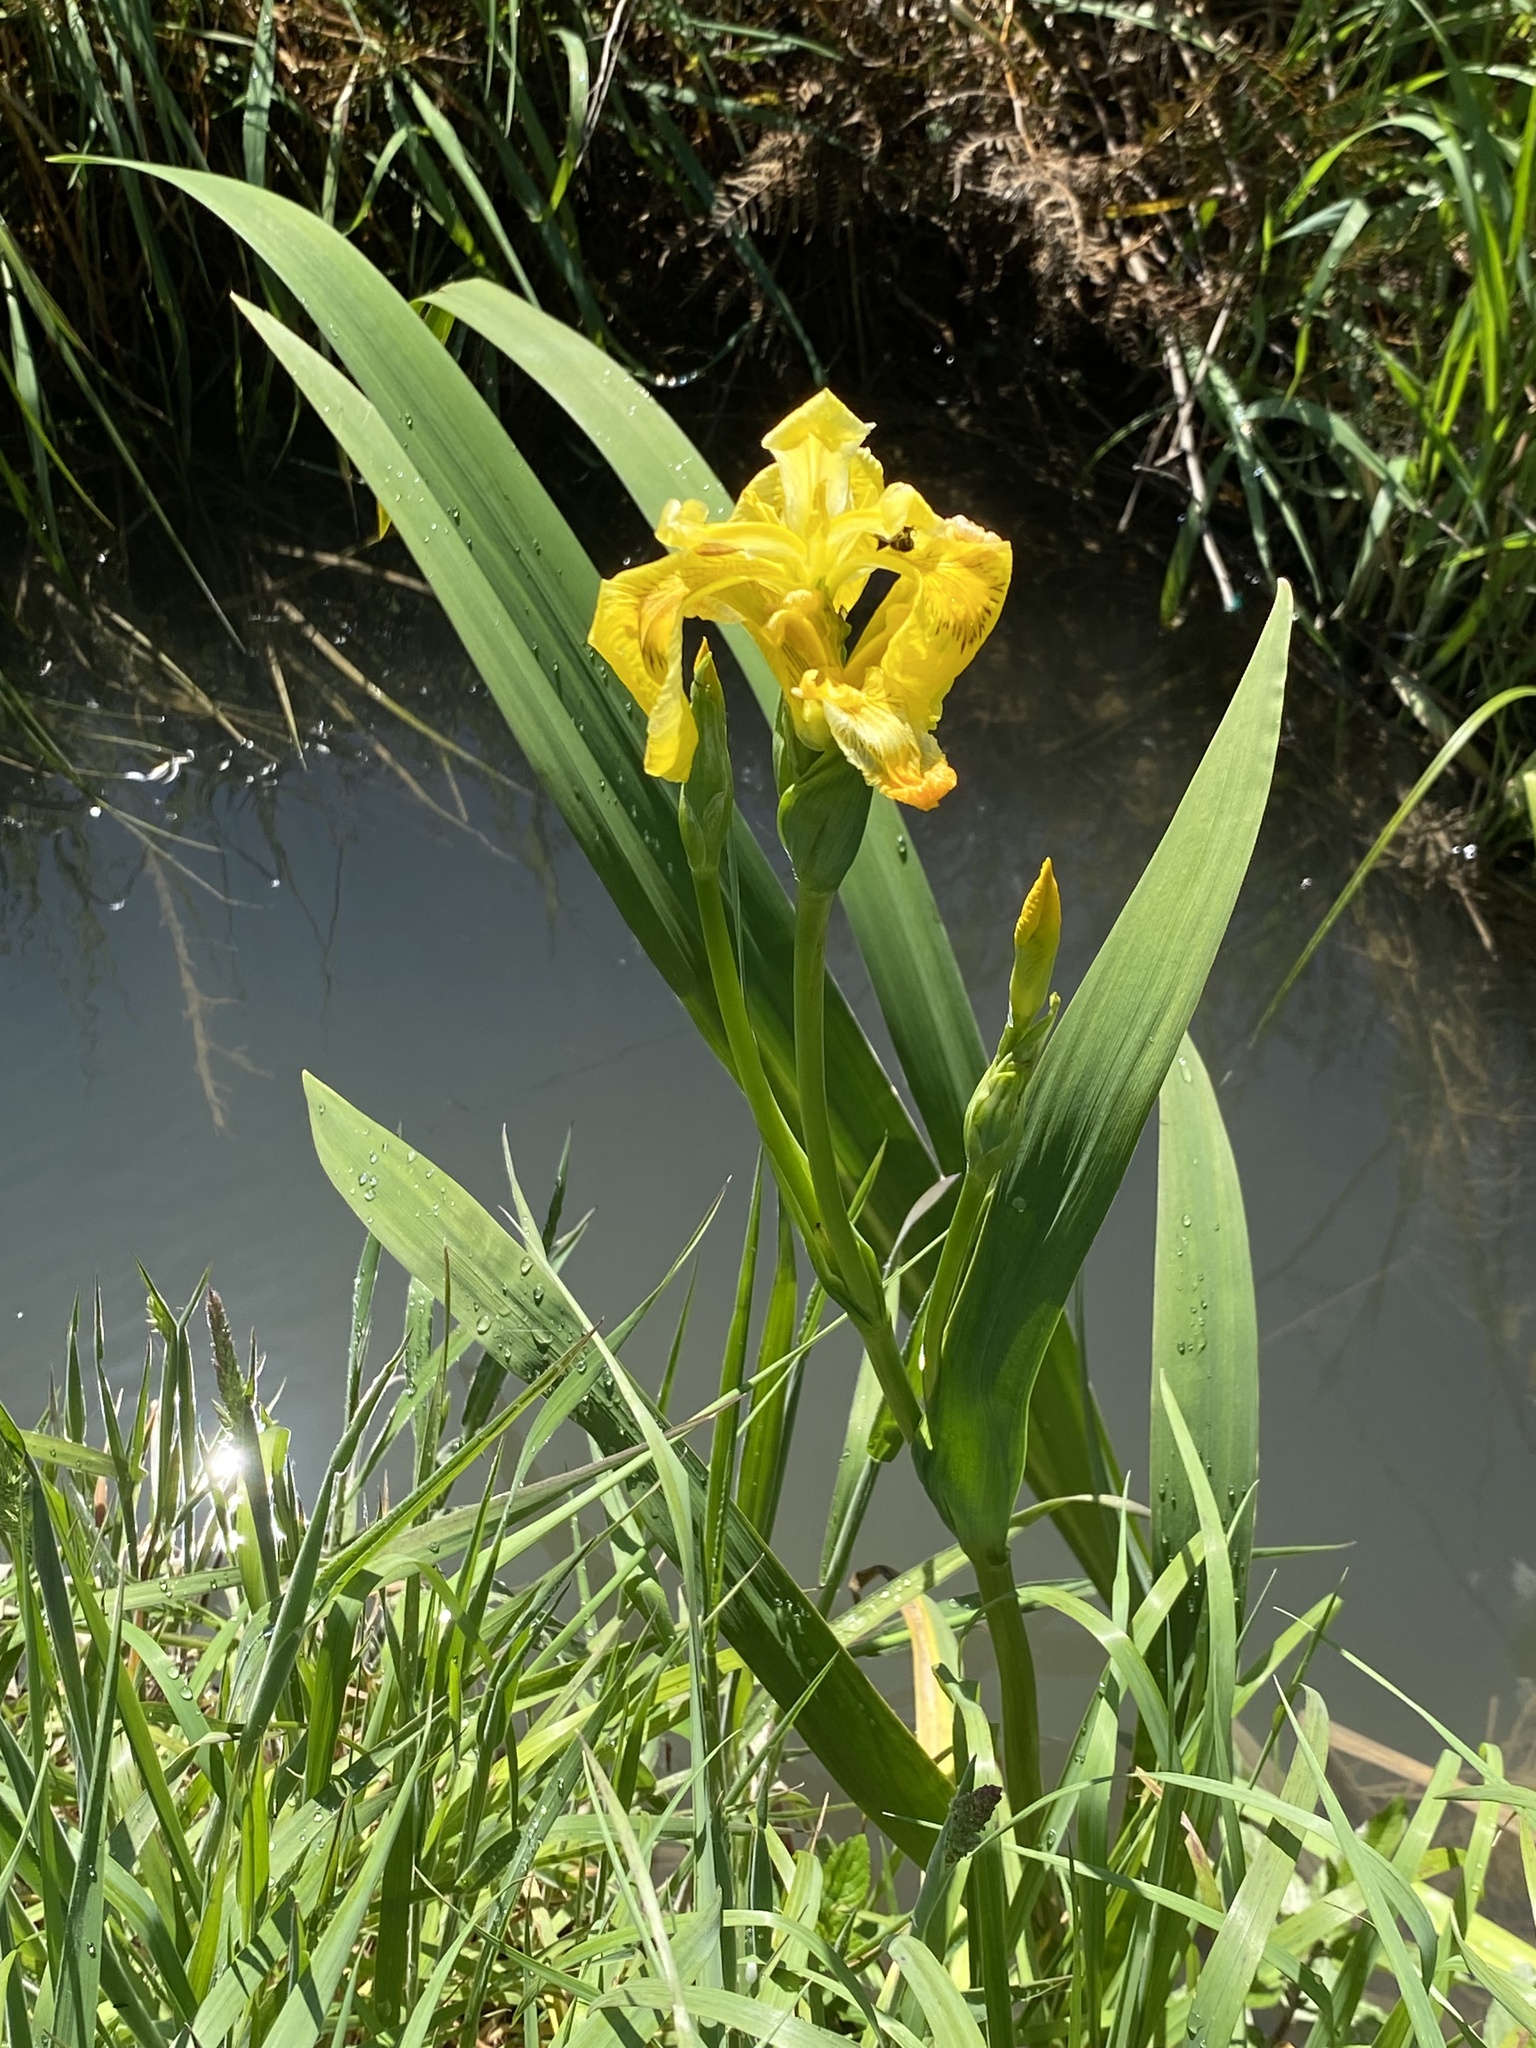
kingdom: Plantae
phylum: Tracheophyta
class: Liliopsida
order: Asparagales
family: Iridaceae
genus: Iris
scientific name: Iris pseudacorus
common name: Yellow flag
